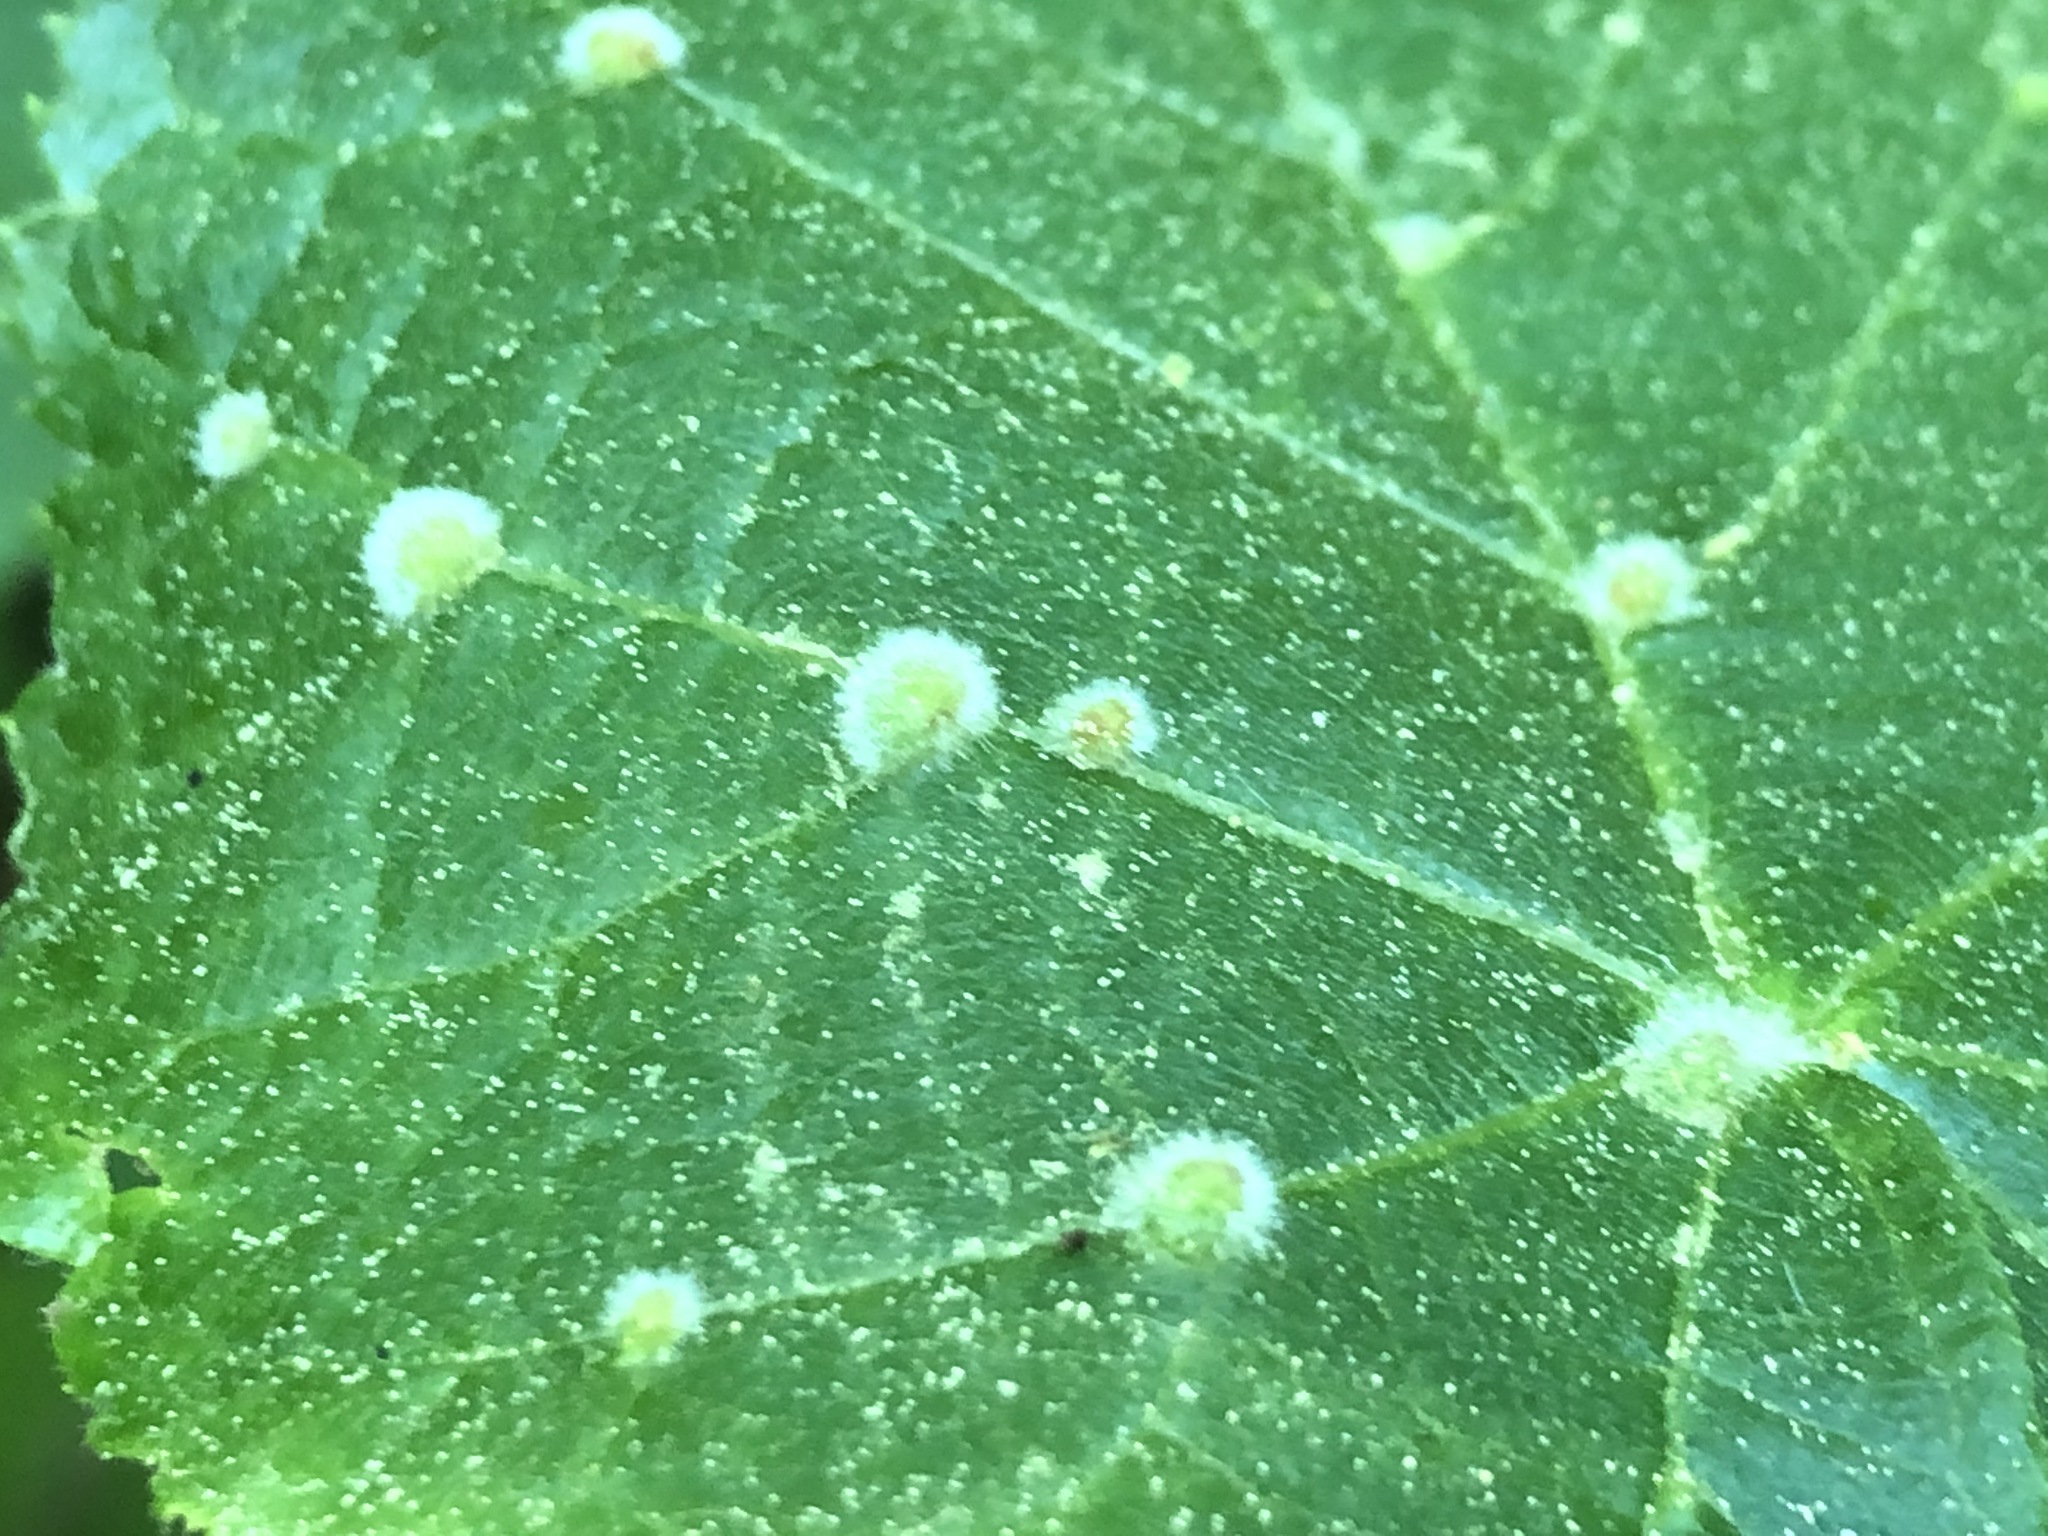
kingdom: Animalia
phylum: Arthropoda
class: Arachnida
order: Trombidiformes
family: Eriophyidae
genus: Eriophyes
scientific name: Eriophyes exilis
